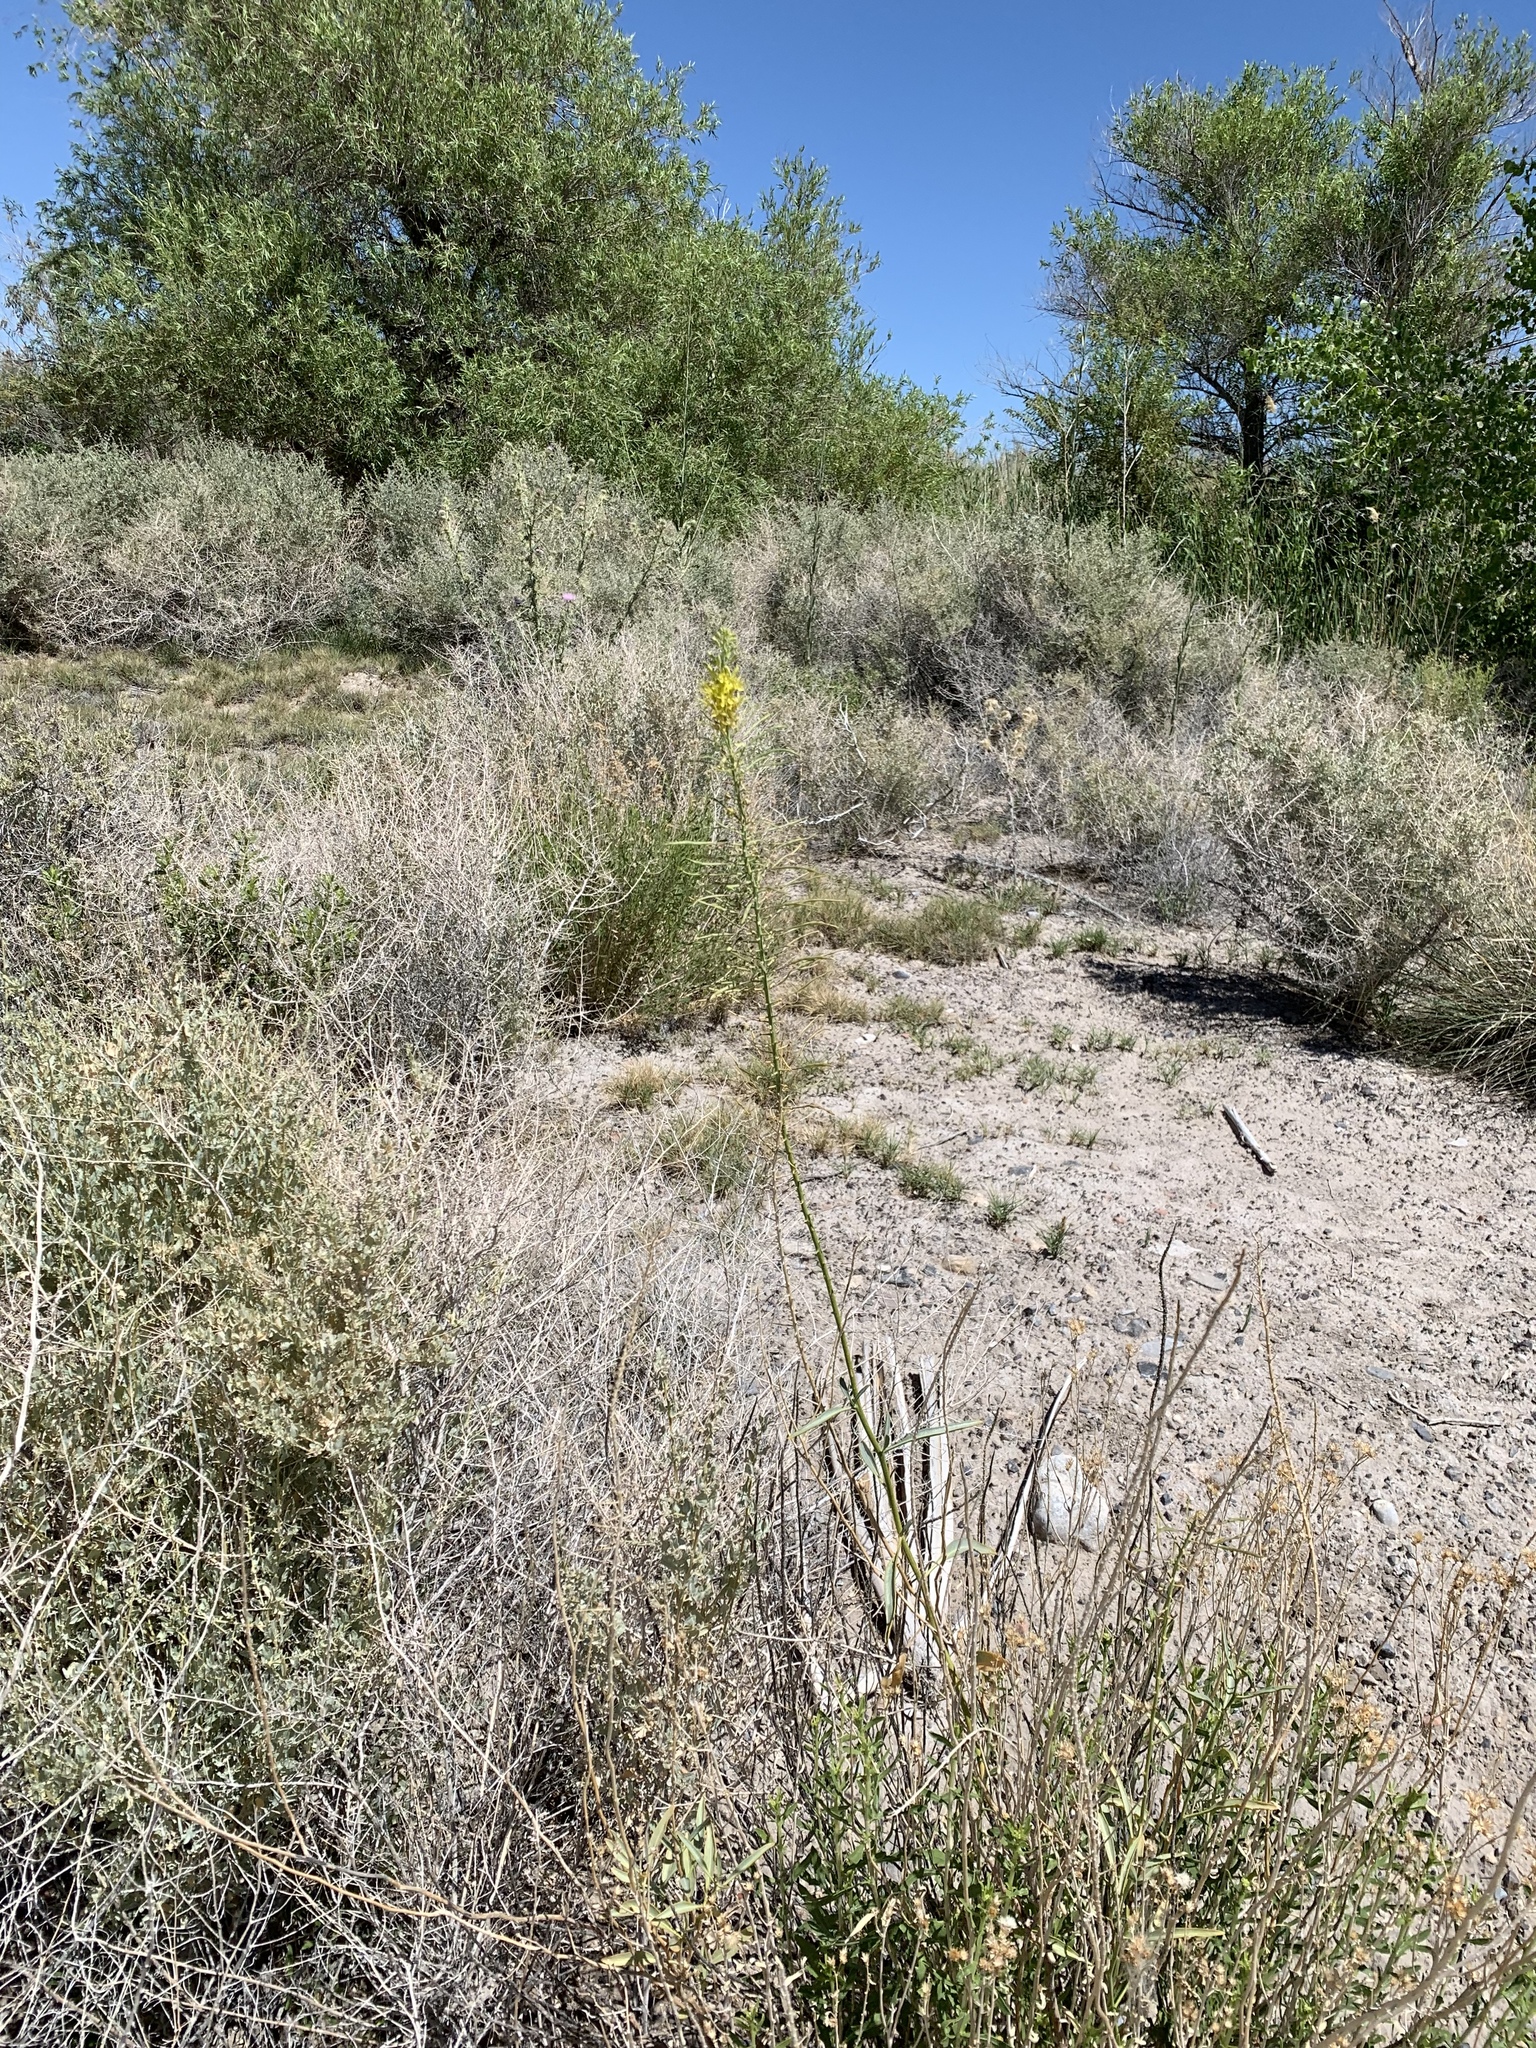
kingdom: Plantae
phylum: Tracheophyta
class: Magnoliopsida
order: Brassicales
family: Brassicaceae
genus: Stanleya
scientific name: Stanleya pinnata
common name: Prince's-plume
